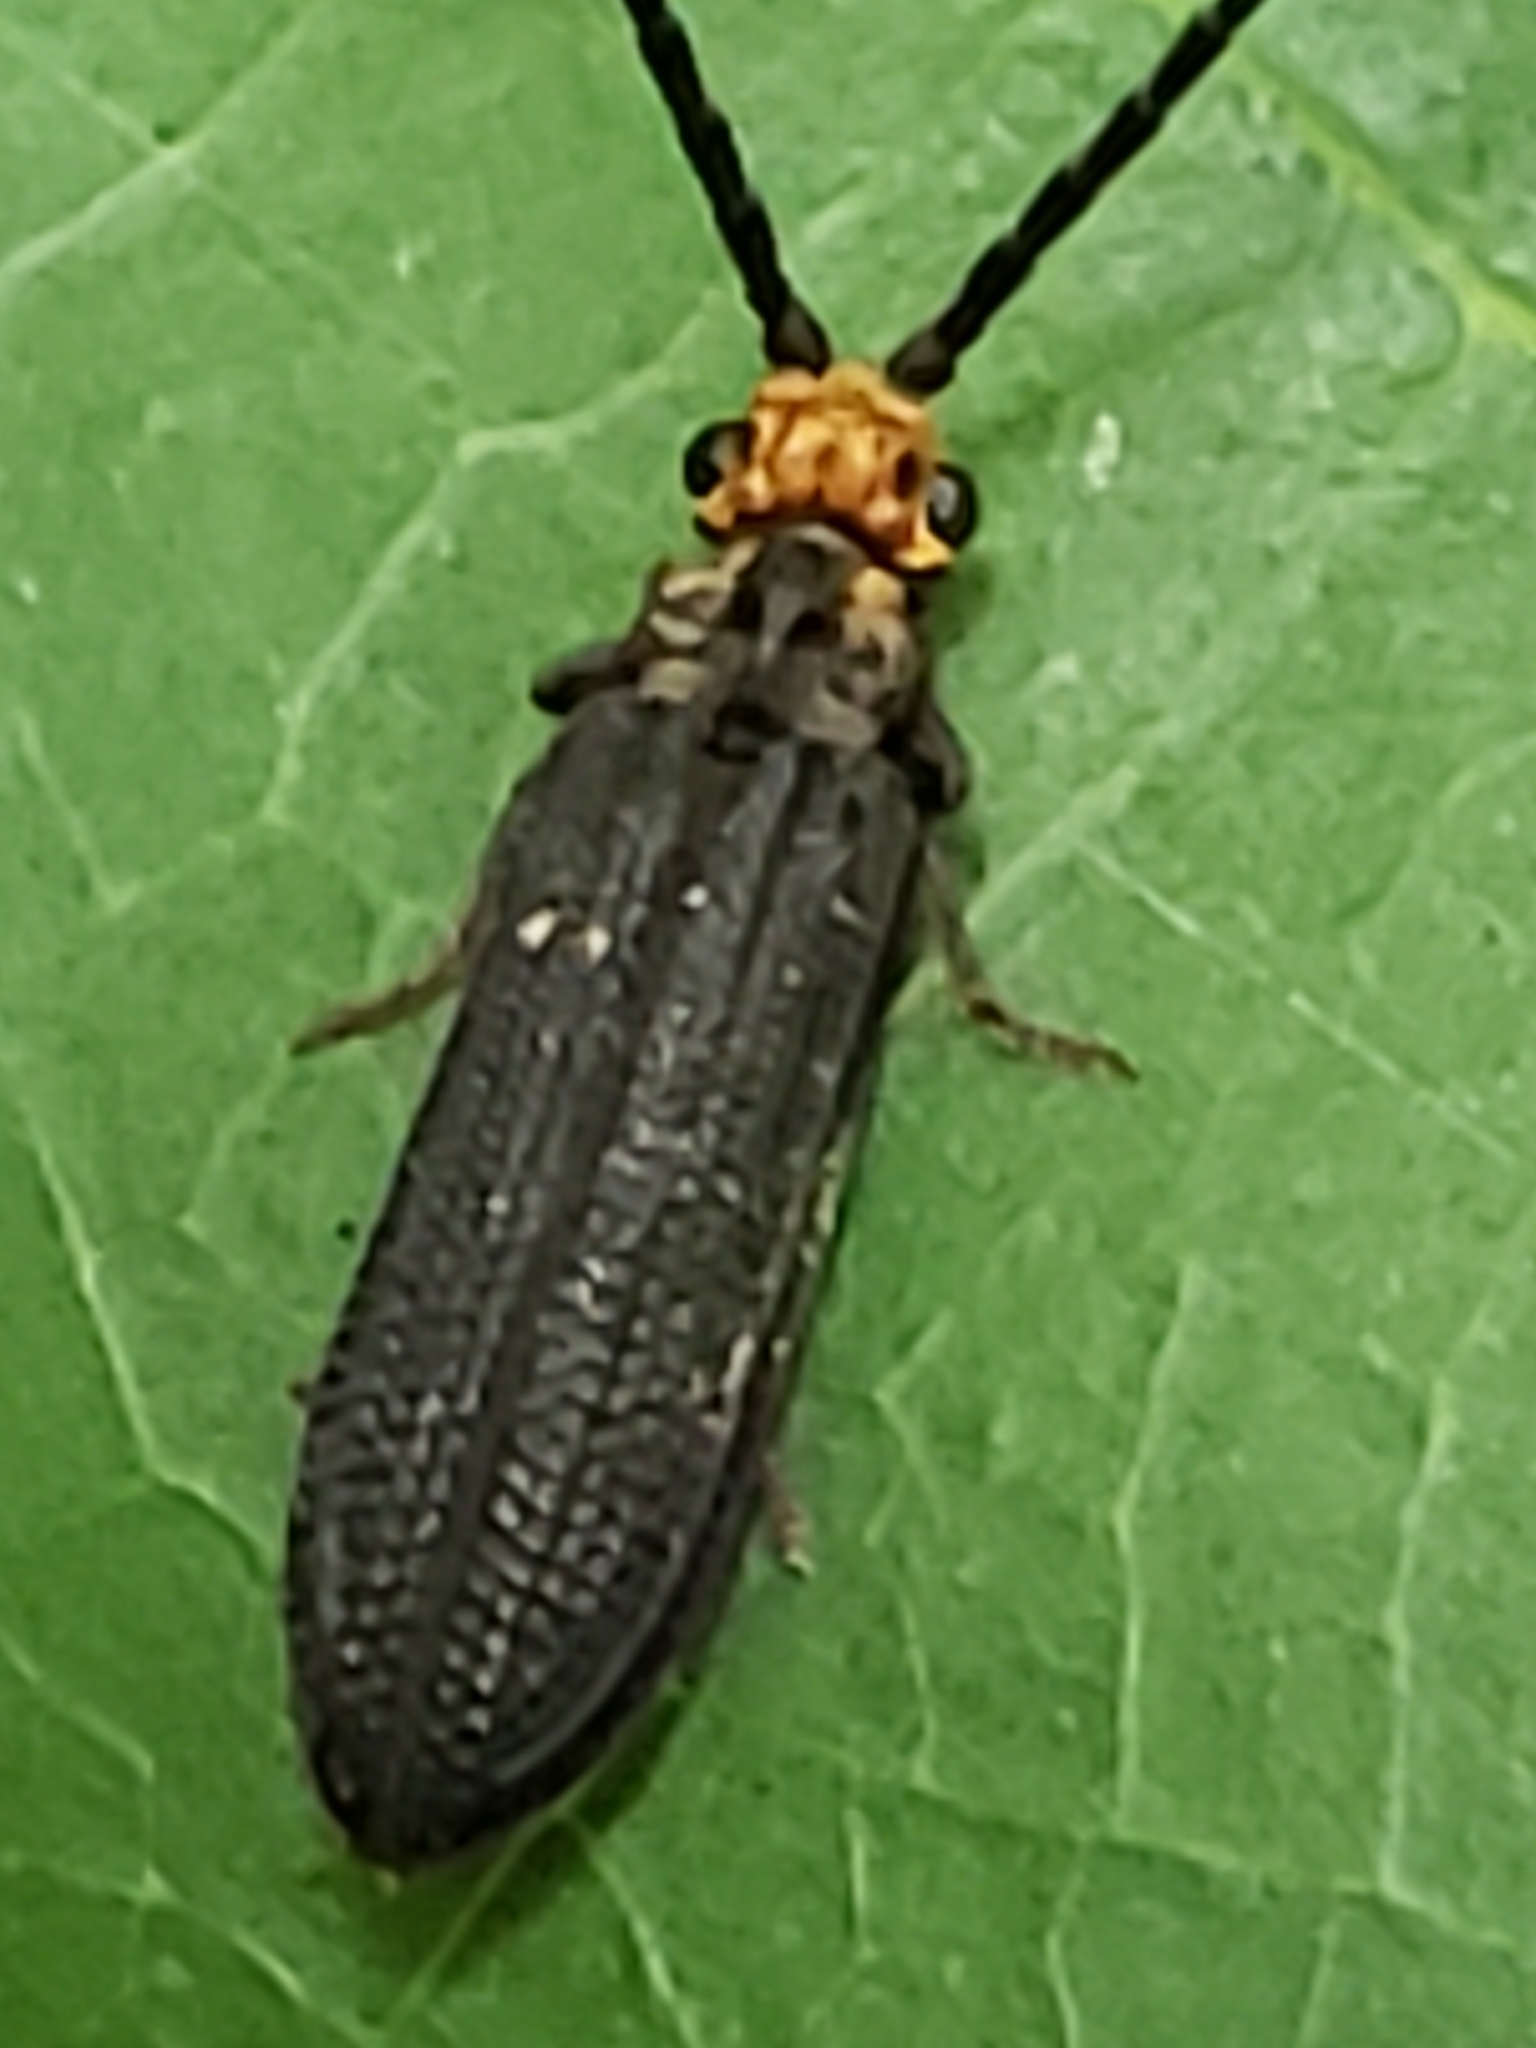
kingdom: Animalia
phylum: Arthropoda
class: Insecta
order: Coleoptera
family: Cupedidae
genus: Cupes
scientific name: Cupes capitata
